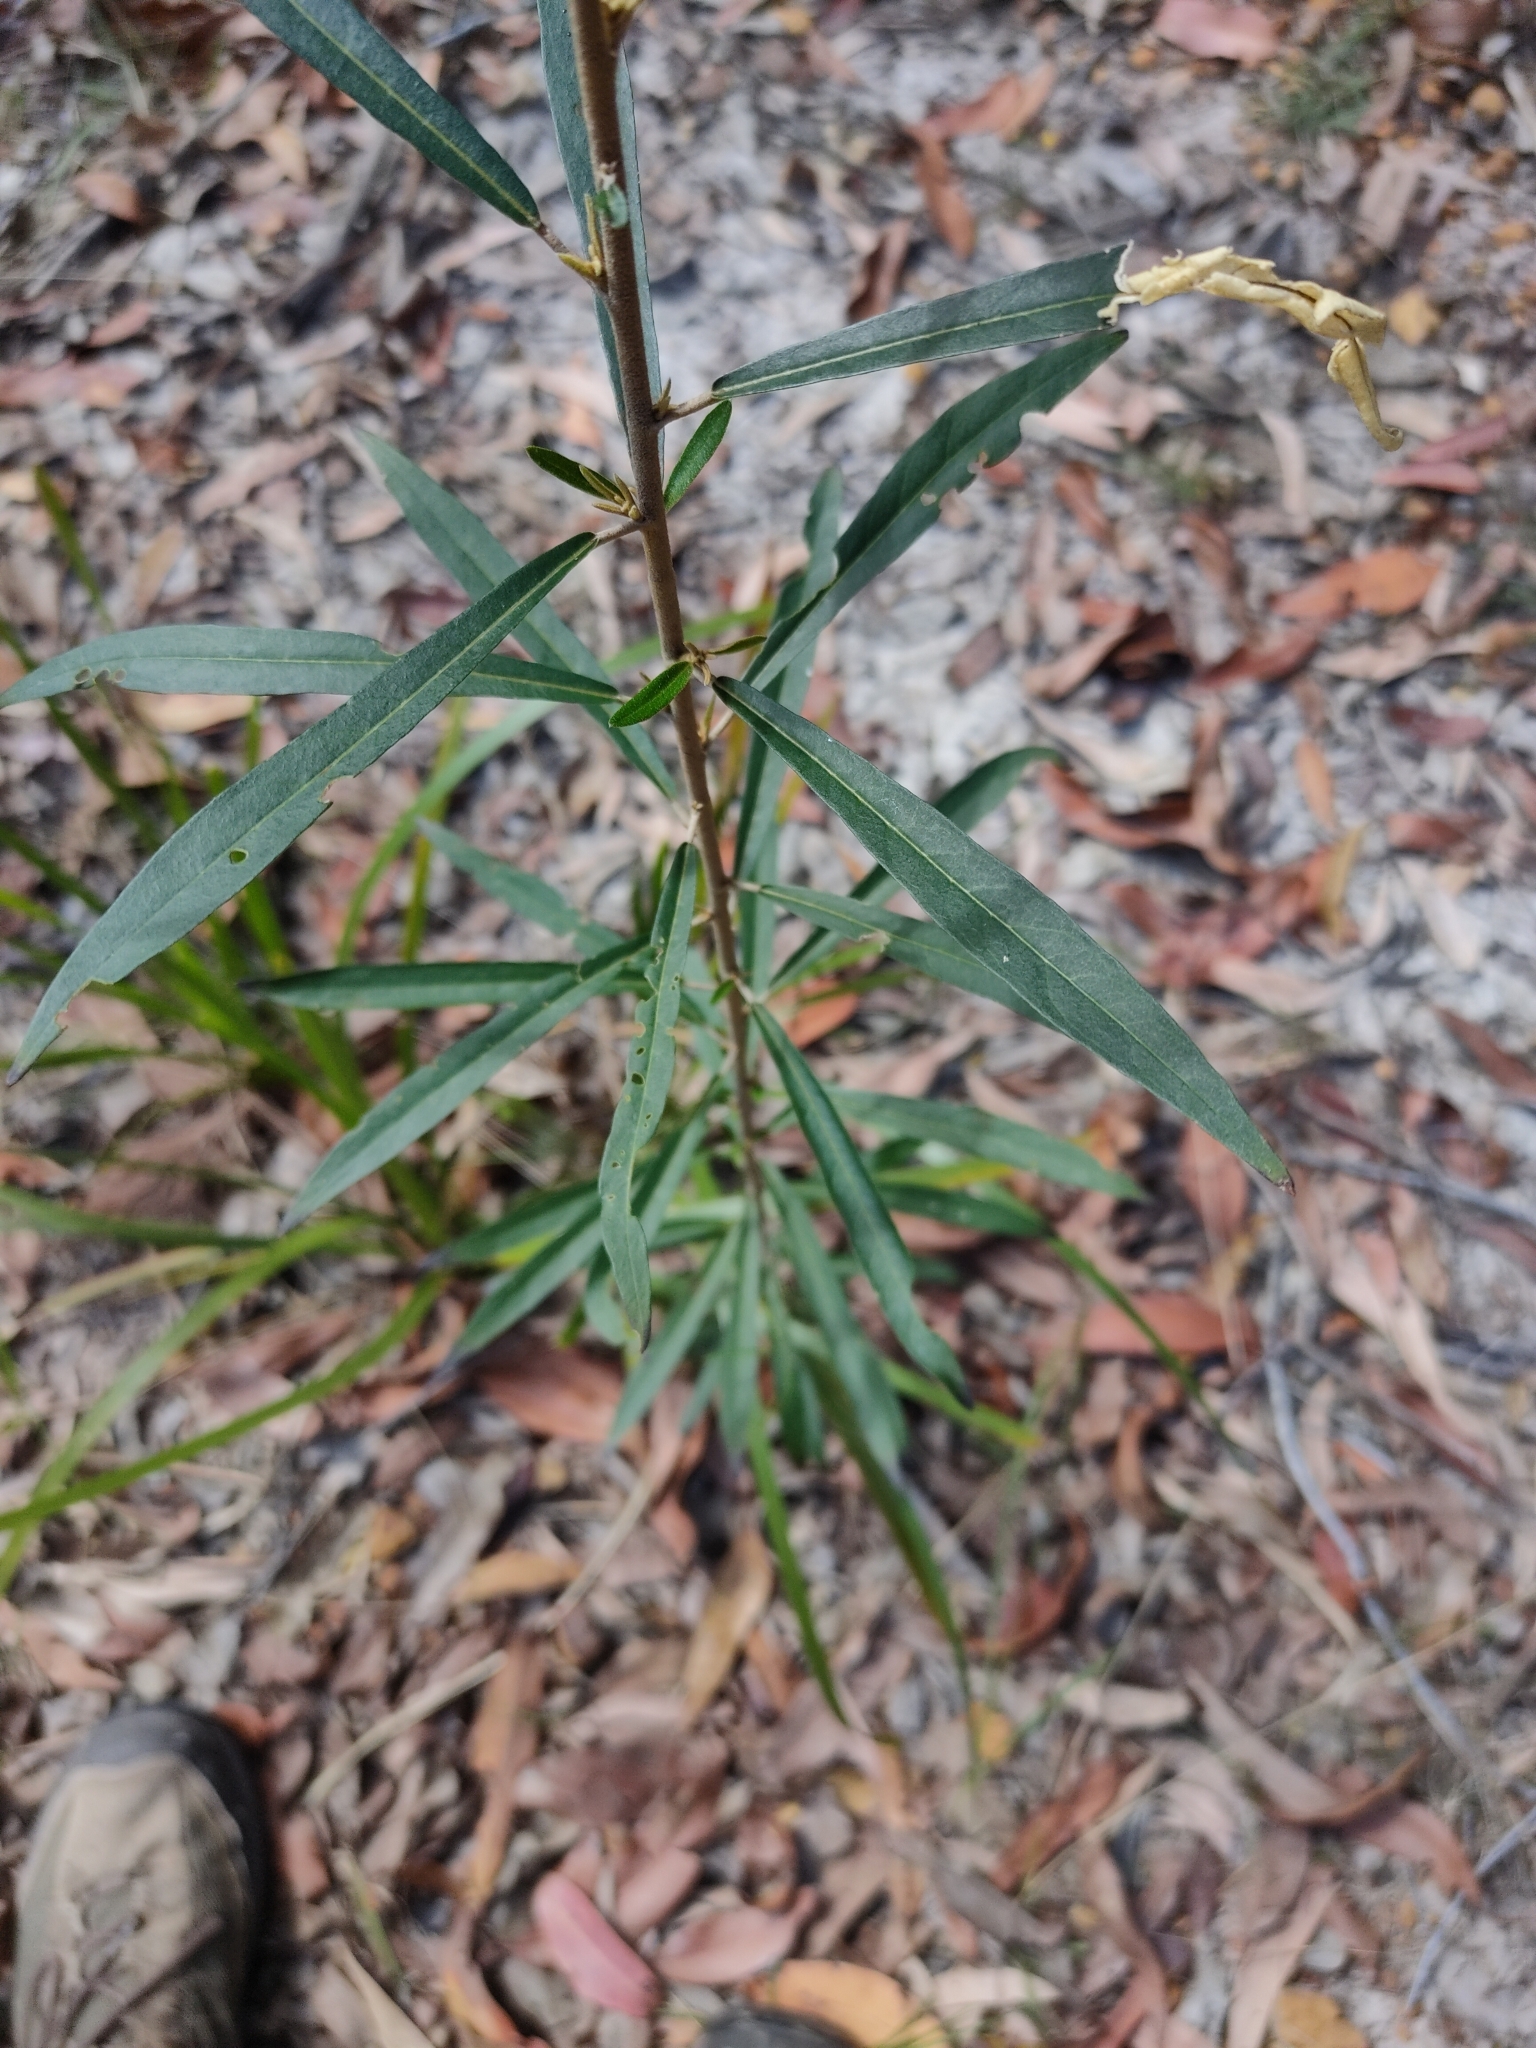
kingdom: Plantae
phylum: Tracheophyta
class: Magnoliopsida
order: Apiales
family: Araliaceae
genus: Astrotricha
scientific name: Astrotricha longifolia
